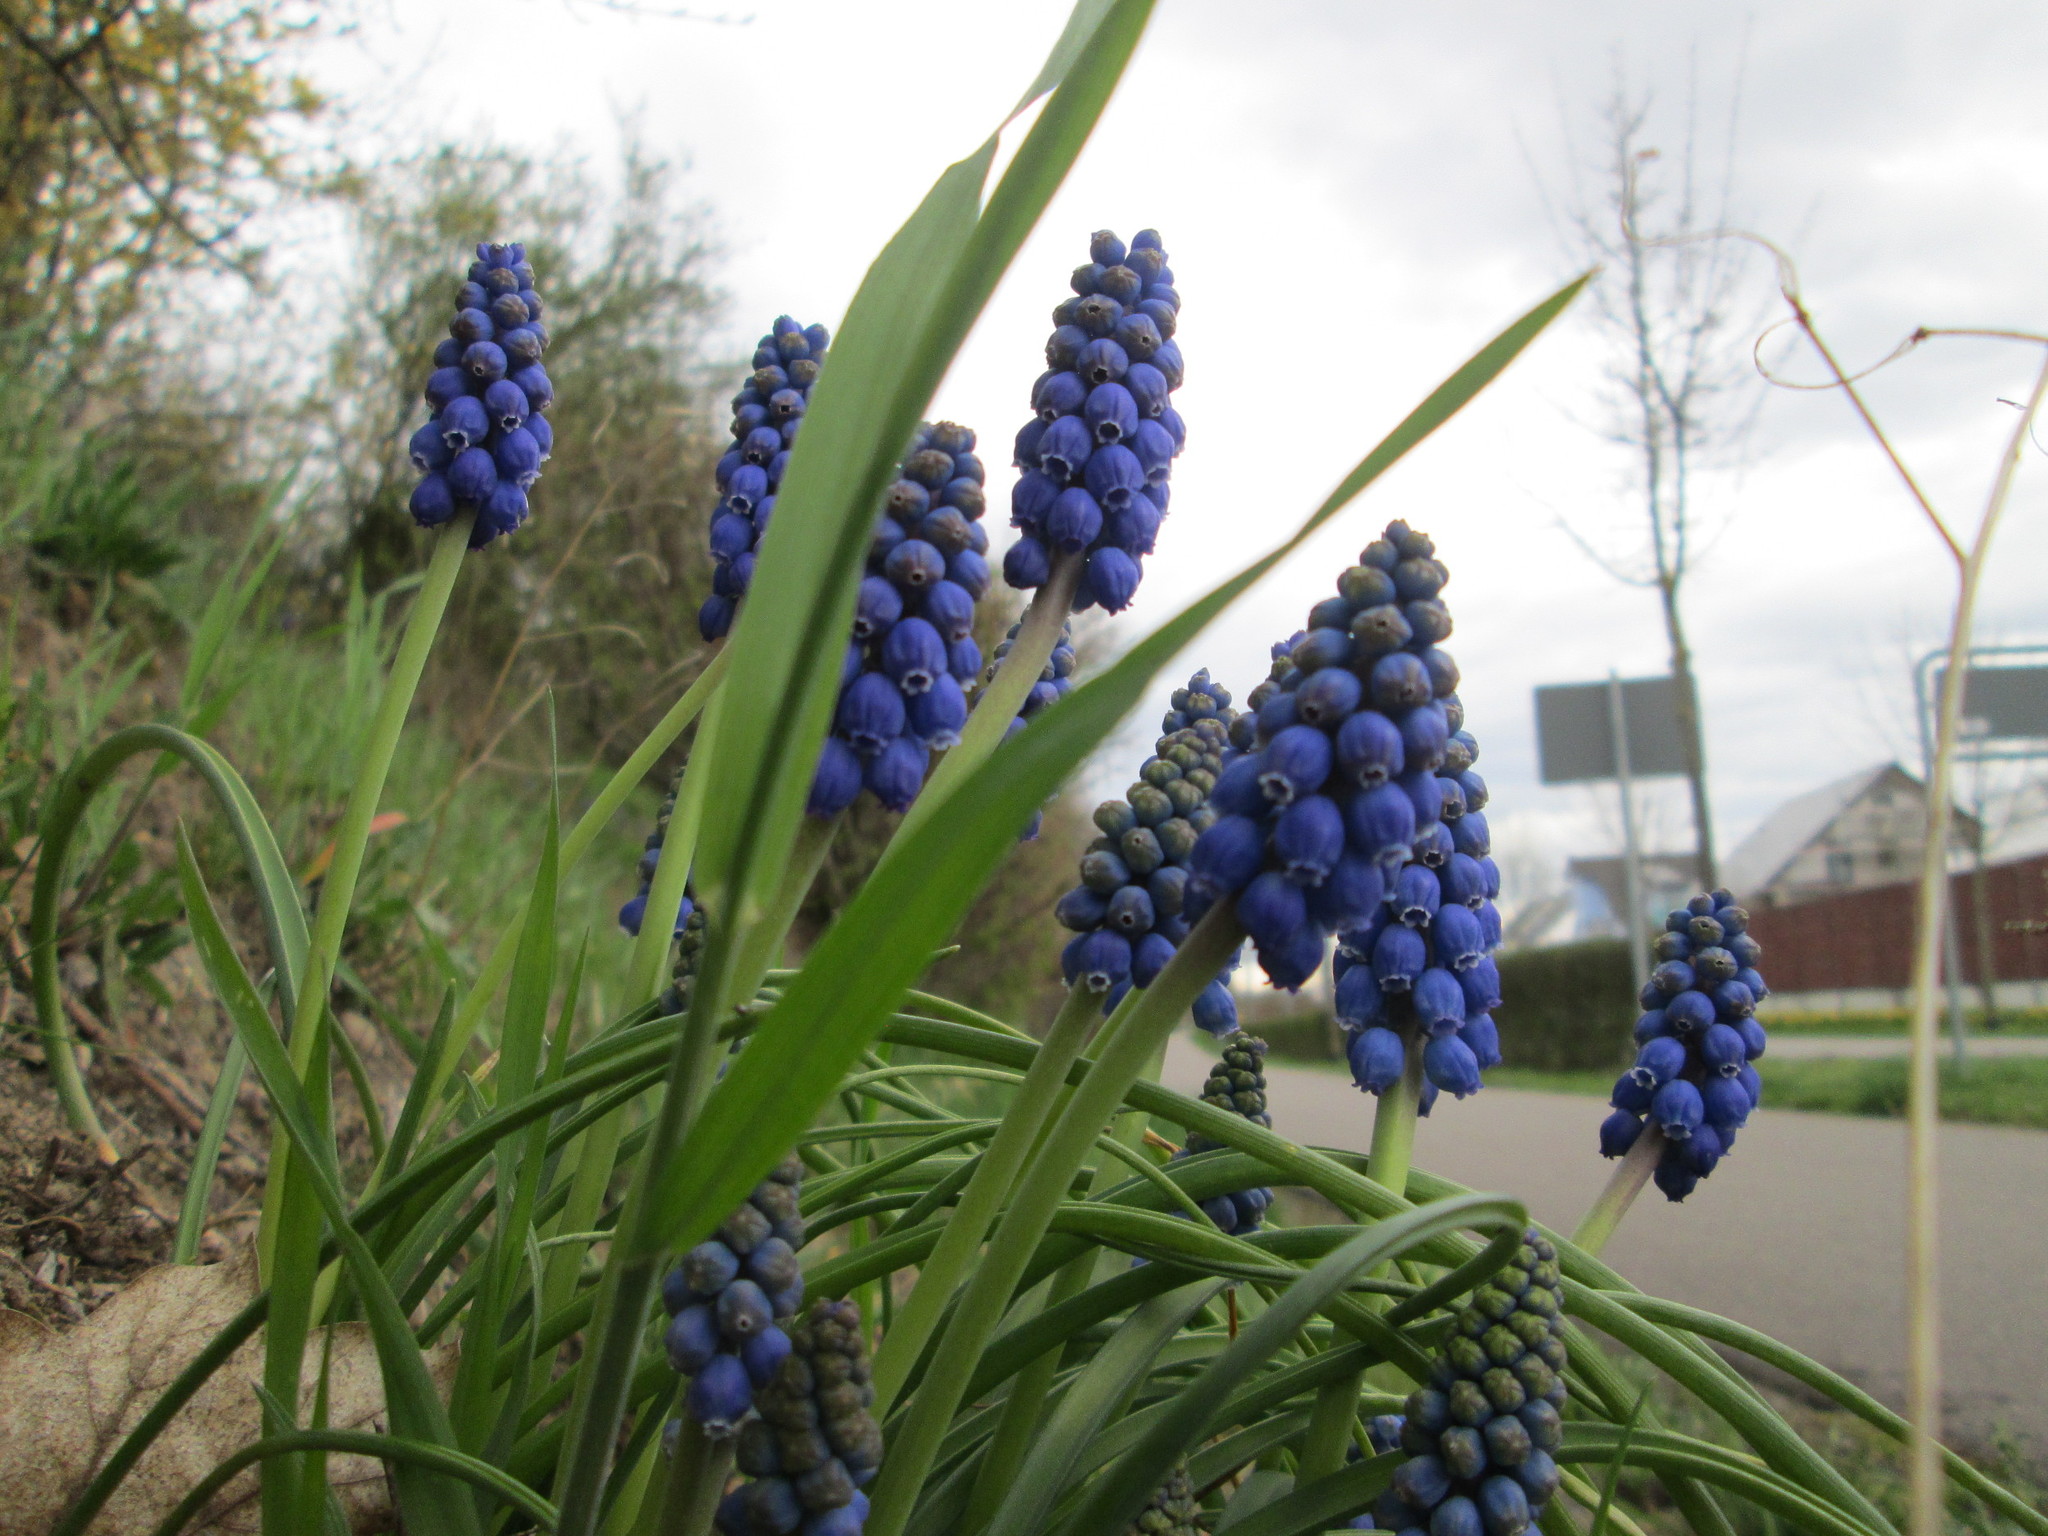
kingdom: Plantae
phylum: Tracheophyta
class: Liliopsida
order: Asparagales
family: Asparagaceae
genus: Muscari
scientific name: Muscari armeniacum
